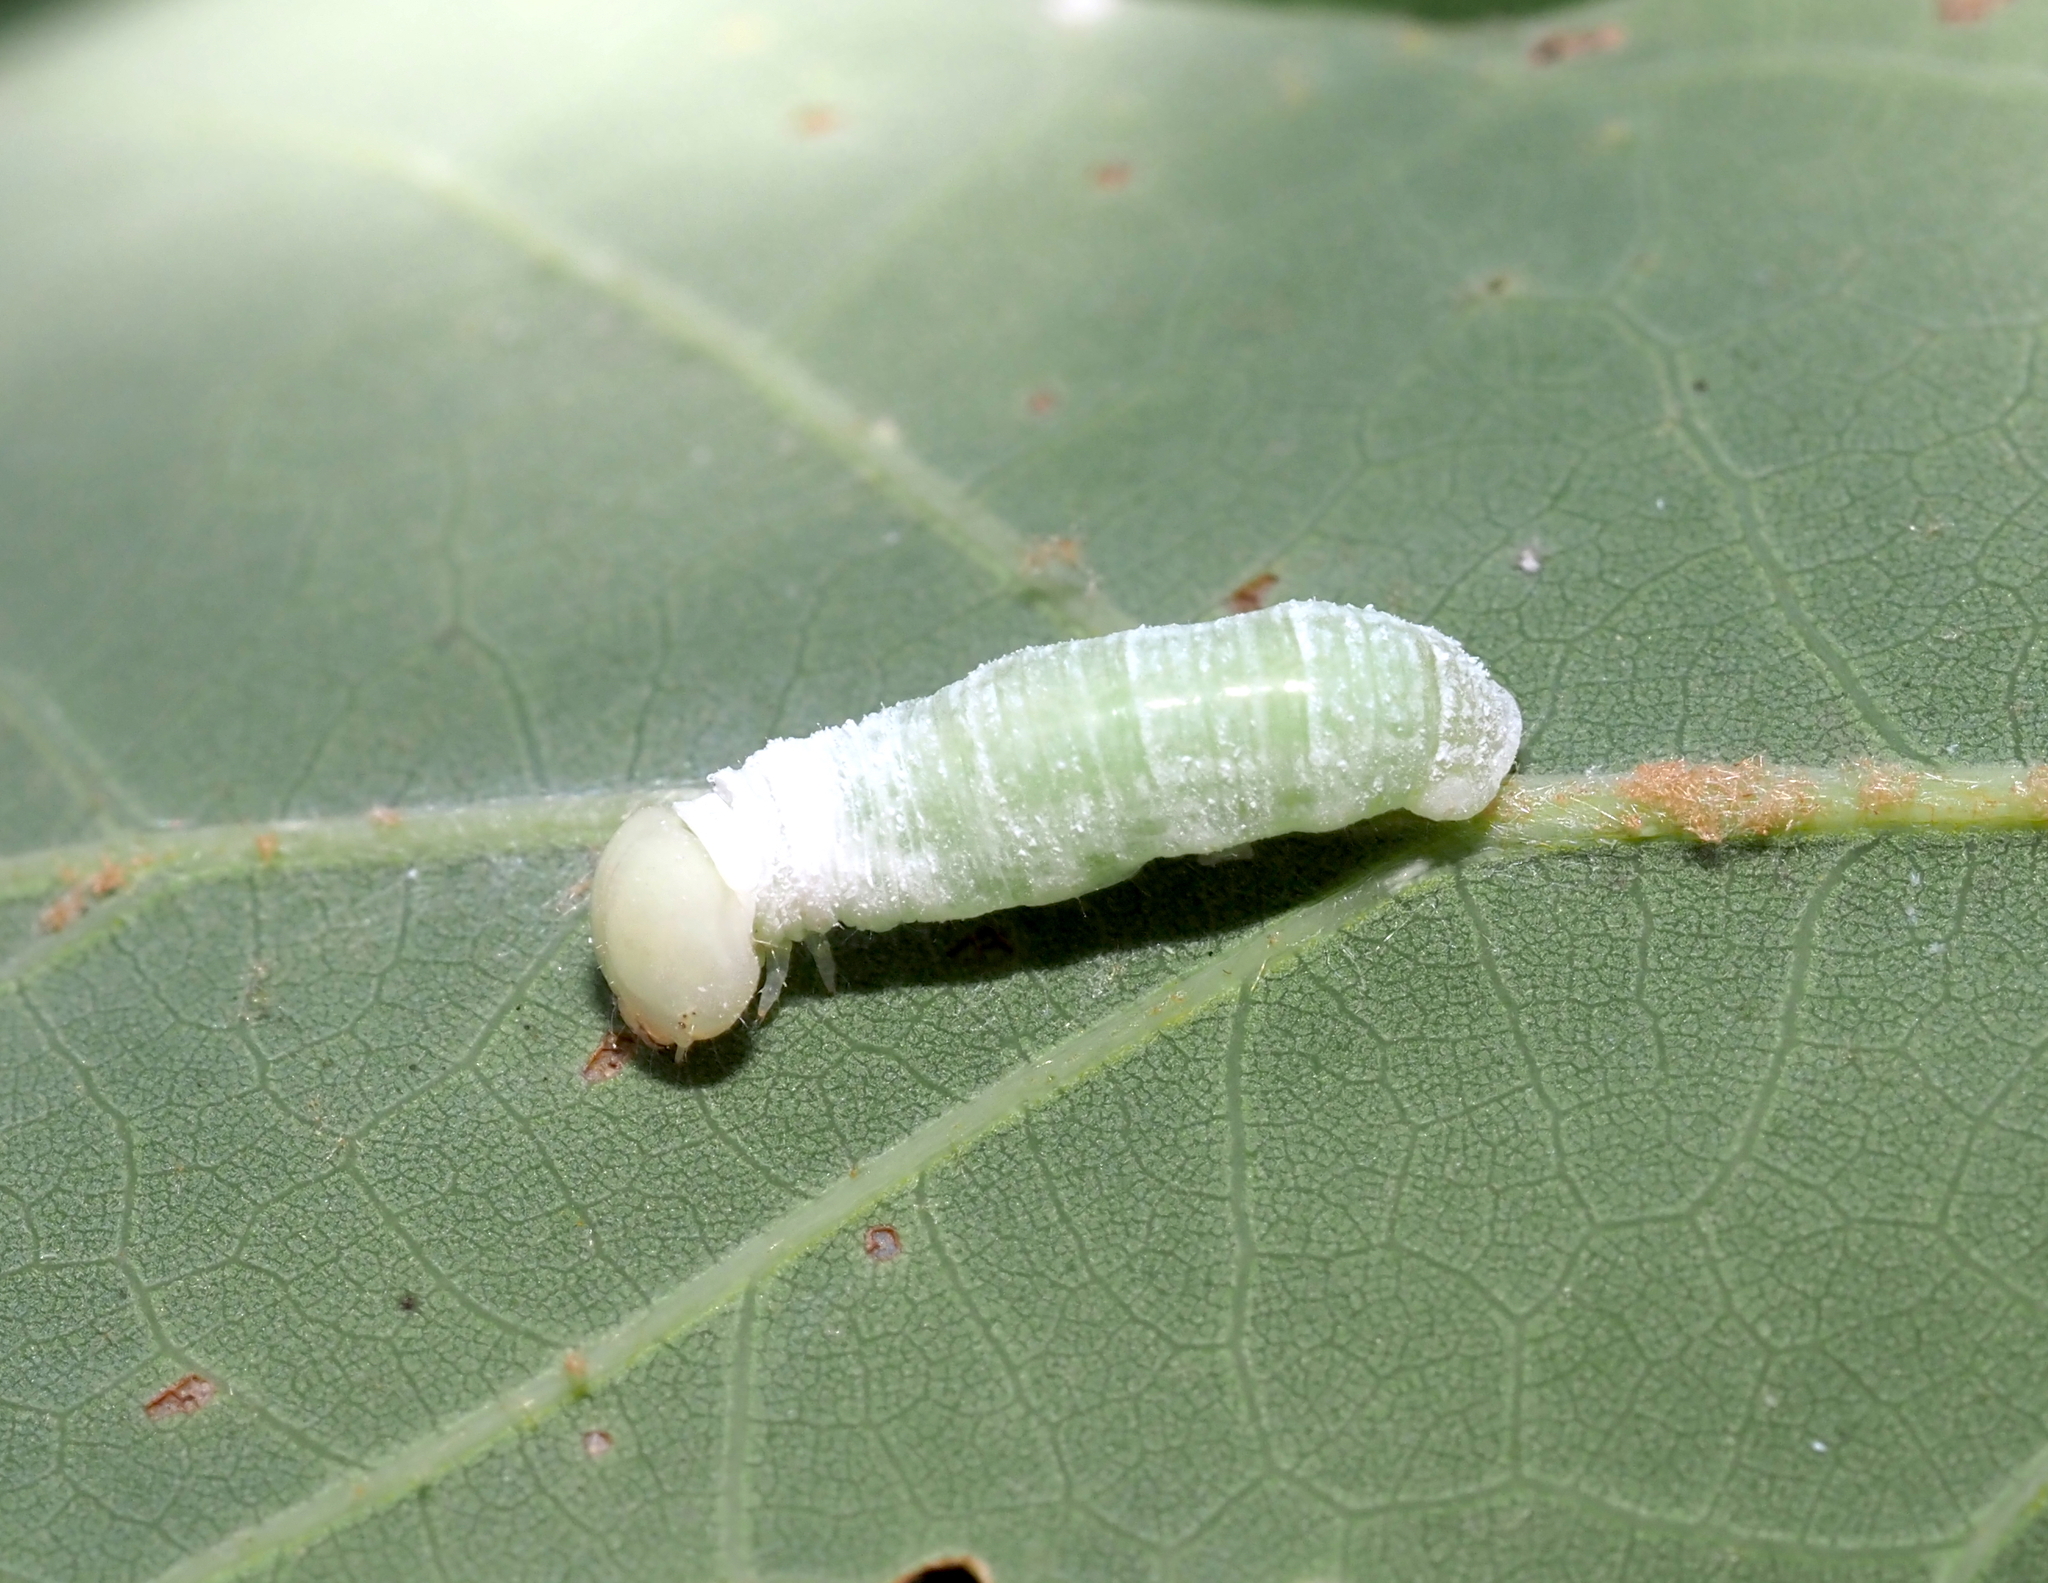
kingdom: Animalia
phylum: Arthropoda
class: Insecta
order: Lepidoptera
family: Notodontidae
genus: Nadata
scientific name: Nadata gibbosa
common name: White-dotted prominent
